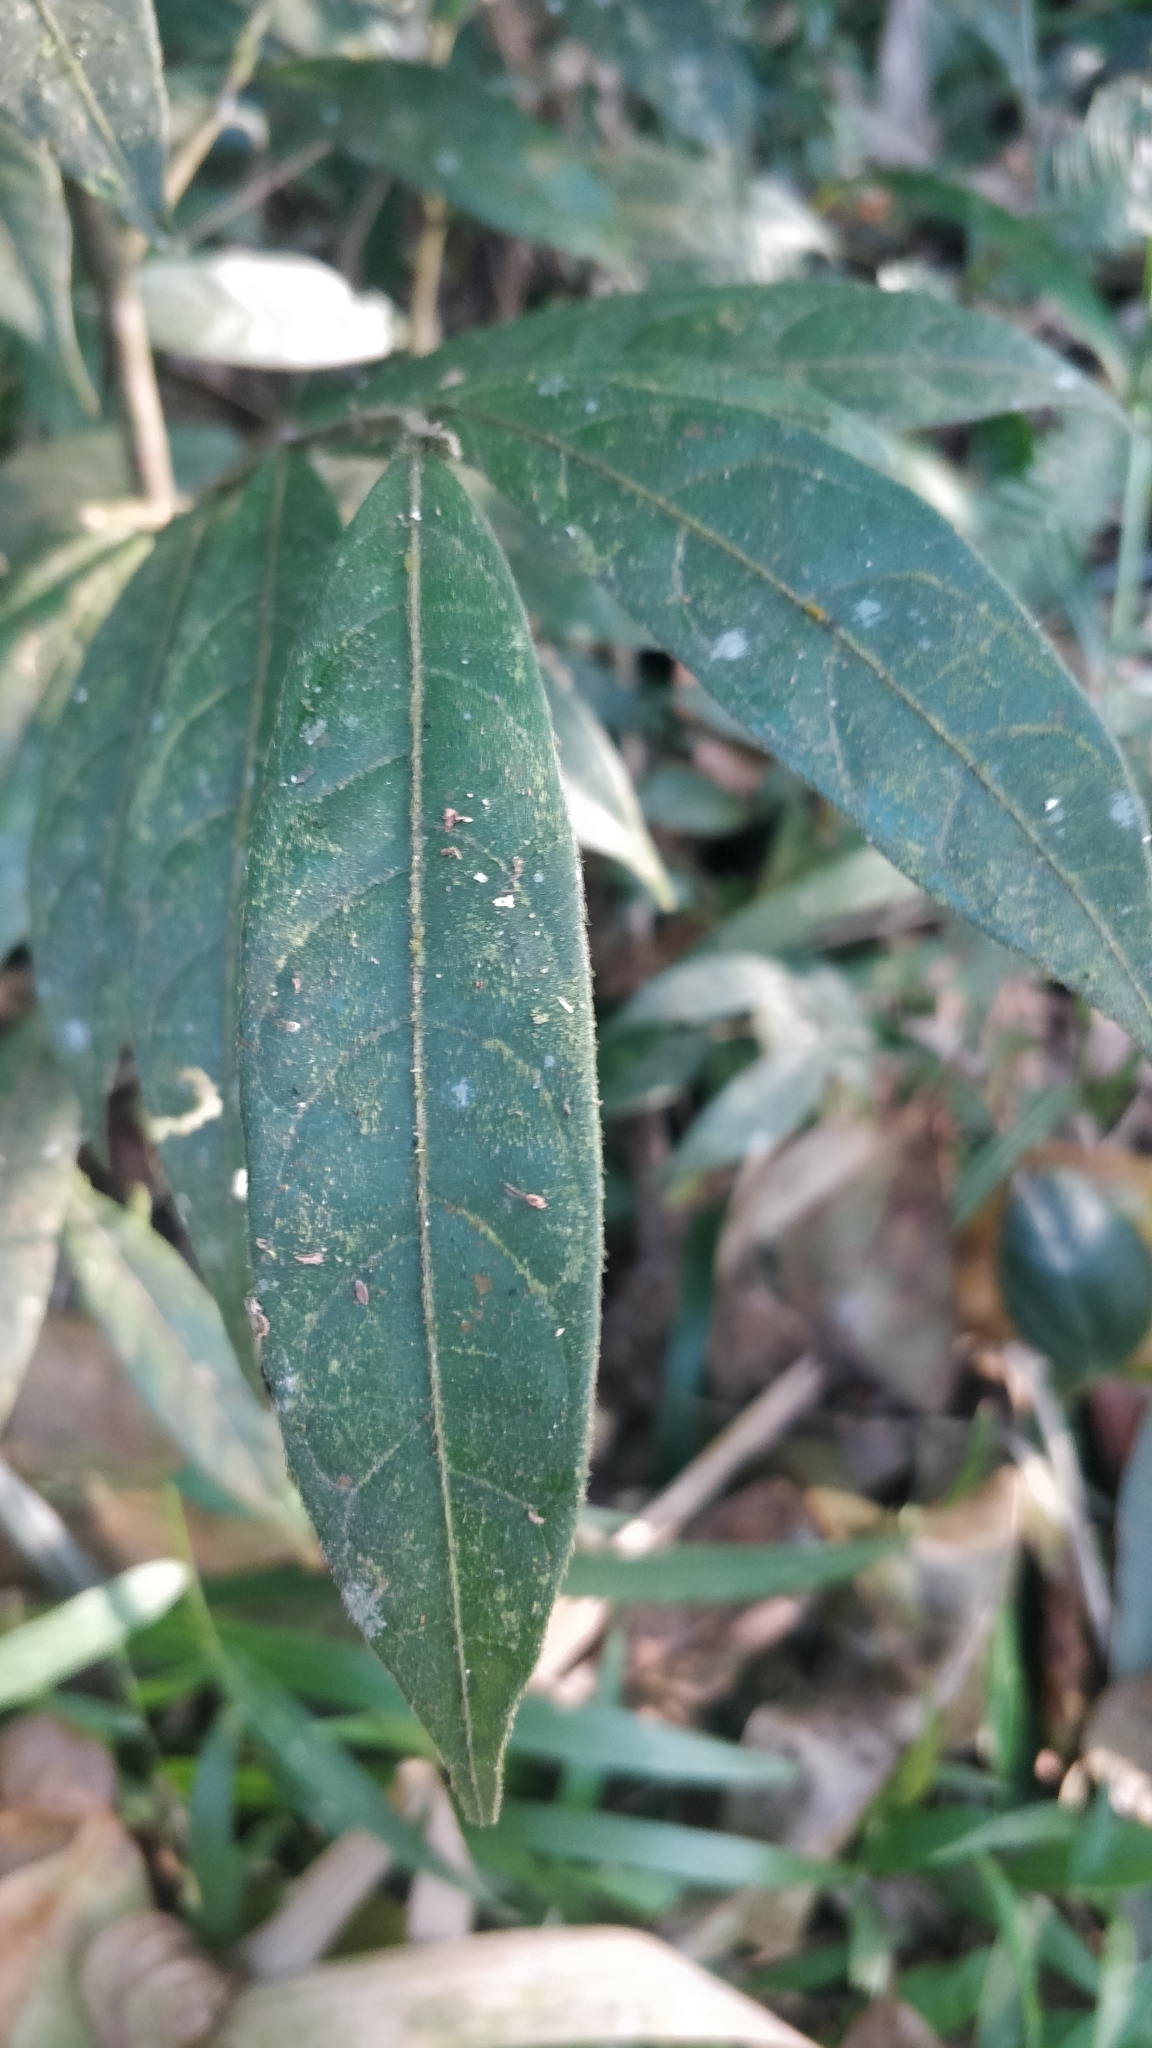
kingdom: Plantae
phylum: Tracheophyta
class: Magnoliopsida
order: Malpighiales
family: Dichapetalaceae
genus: Dichapetalum
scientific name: Dichapetalum gelonioides
